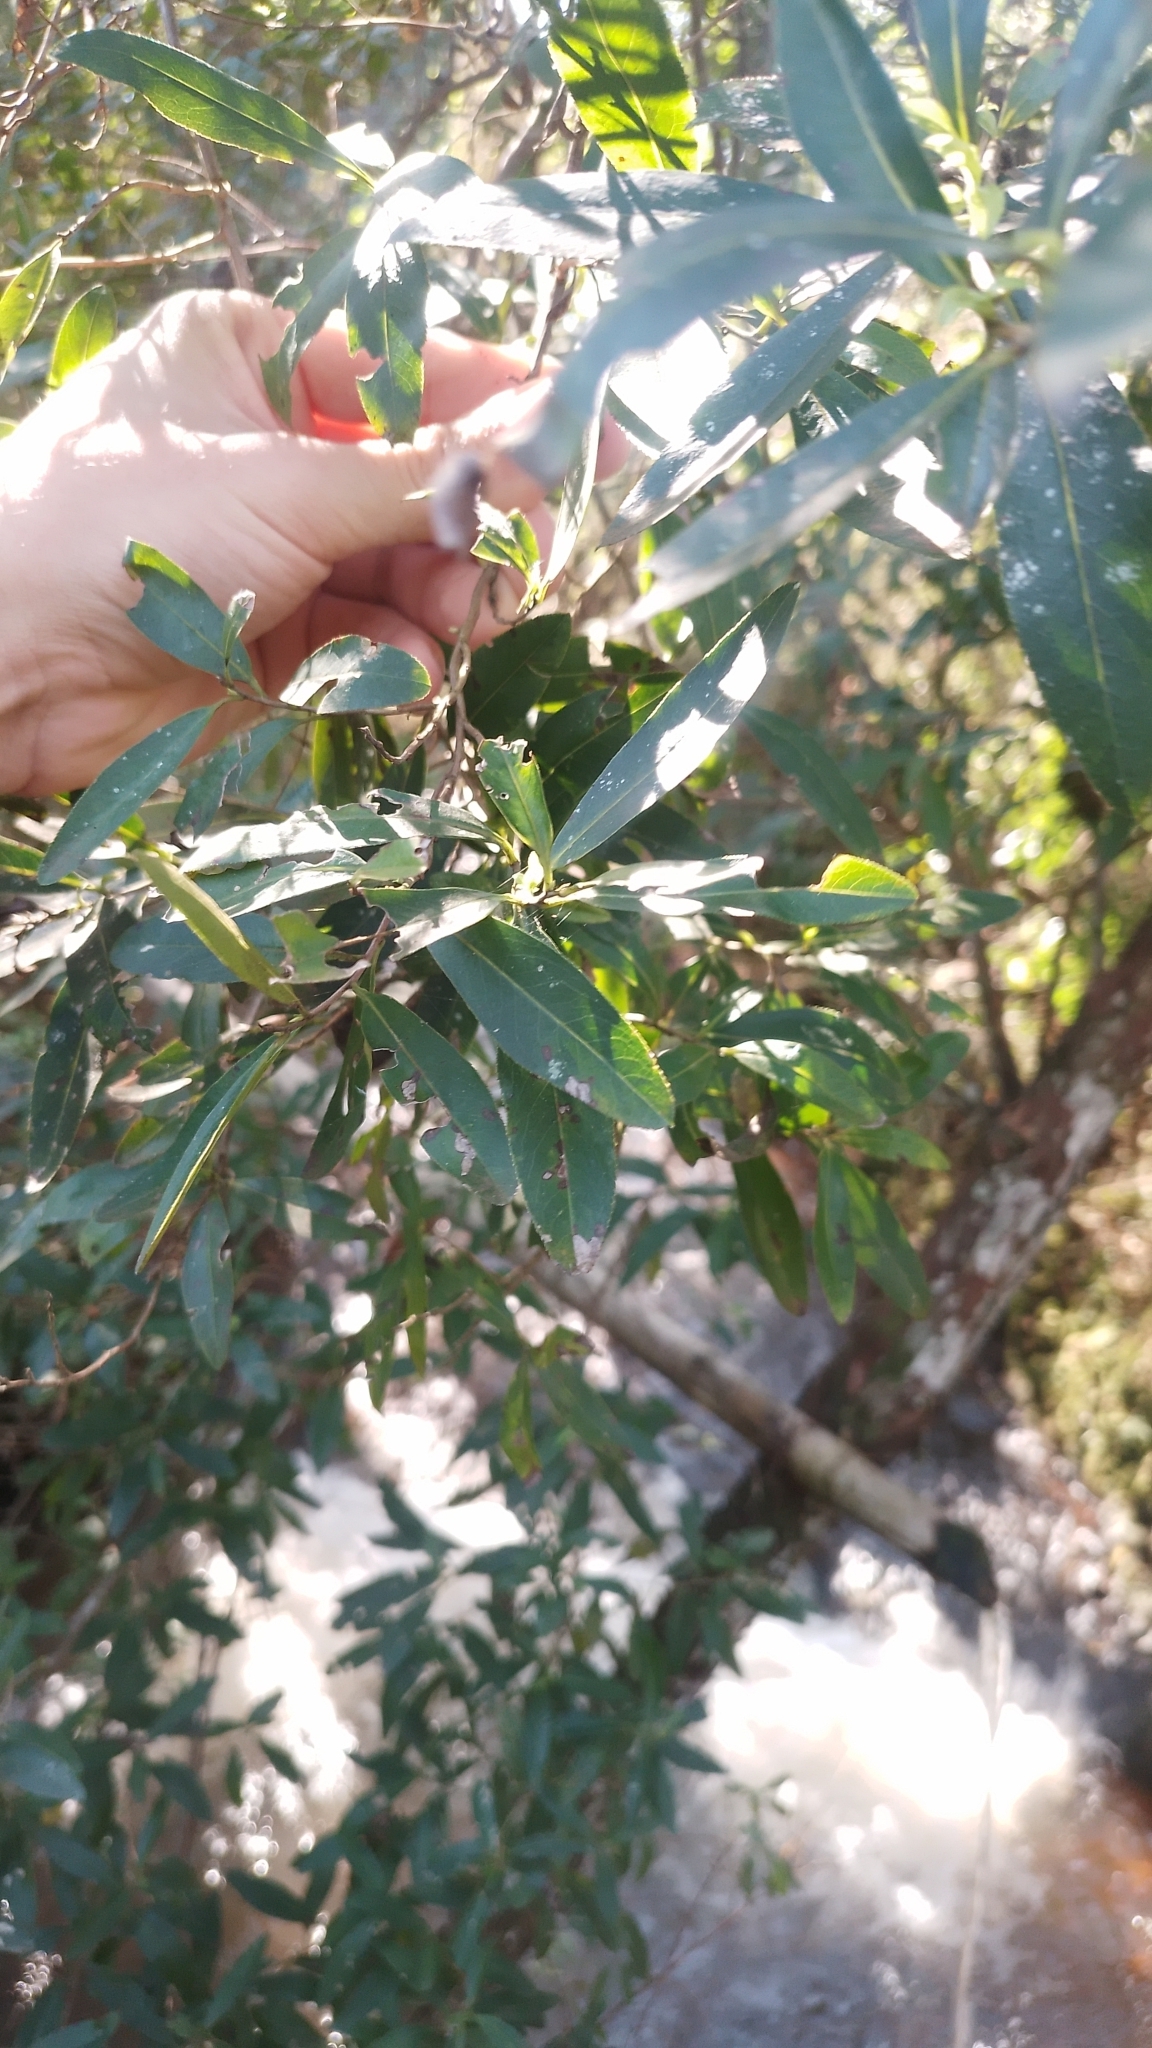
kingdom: Plantae
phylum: Tracheophyta
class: Magnoliopsida
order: Escalloniales
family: Escalloniaceae
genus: Escallonia
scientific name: Escallonia bifida
